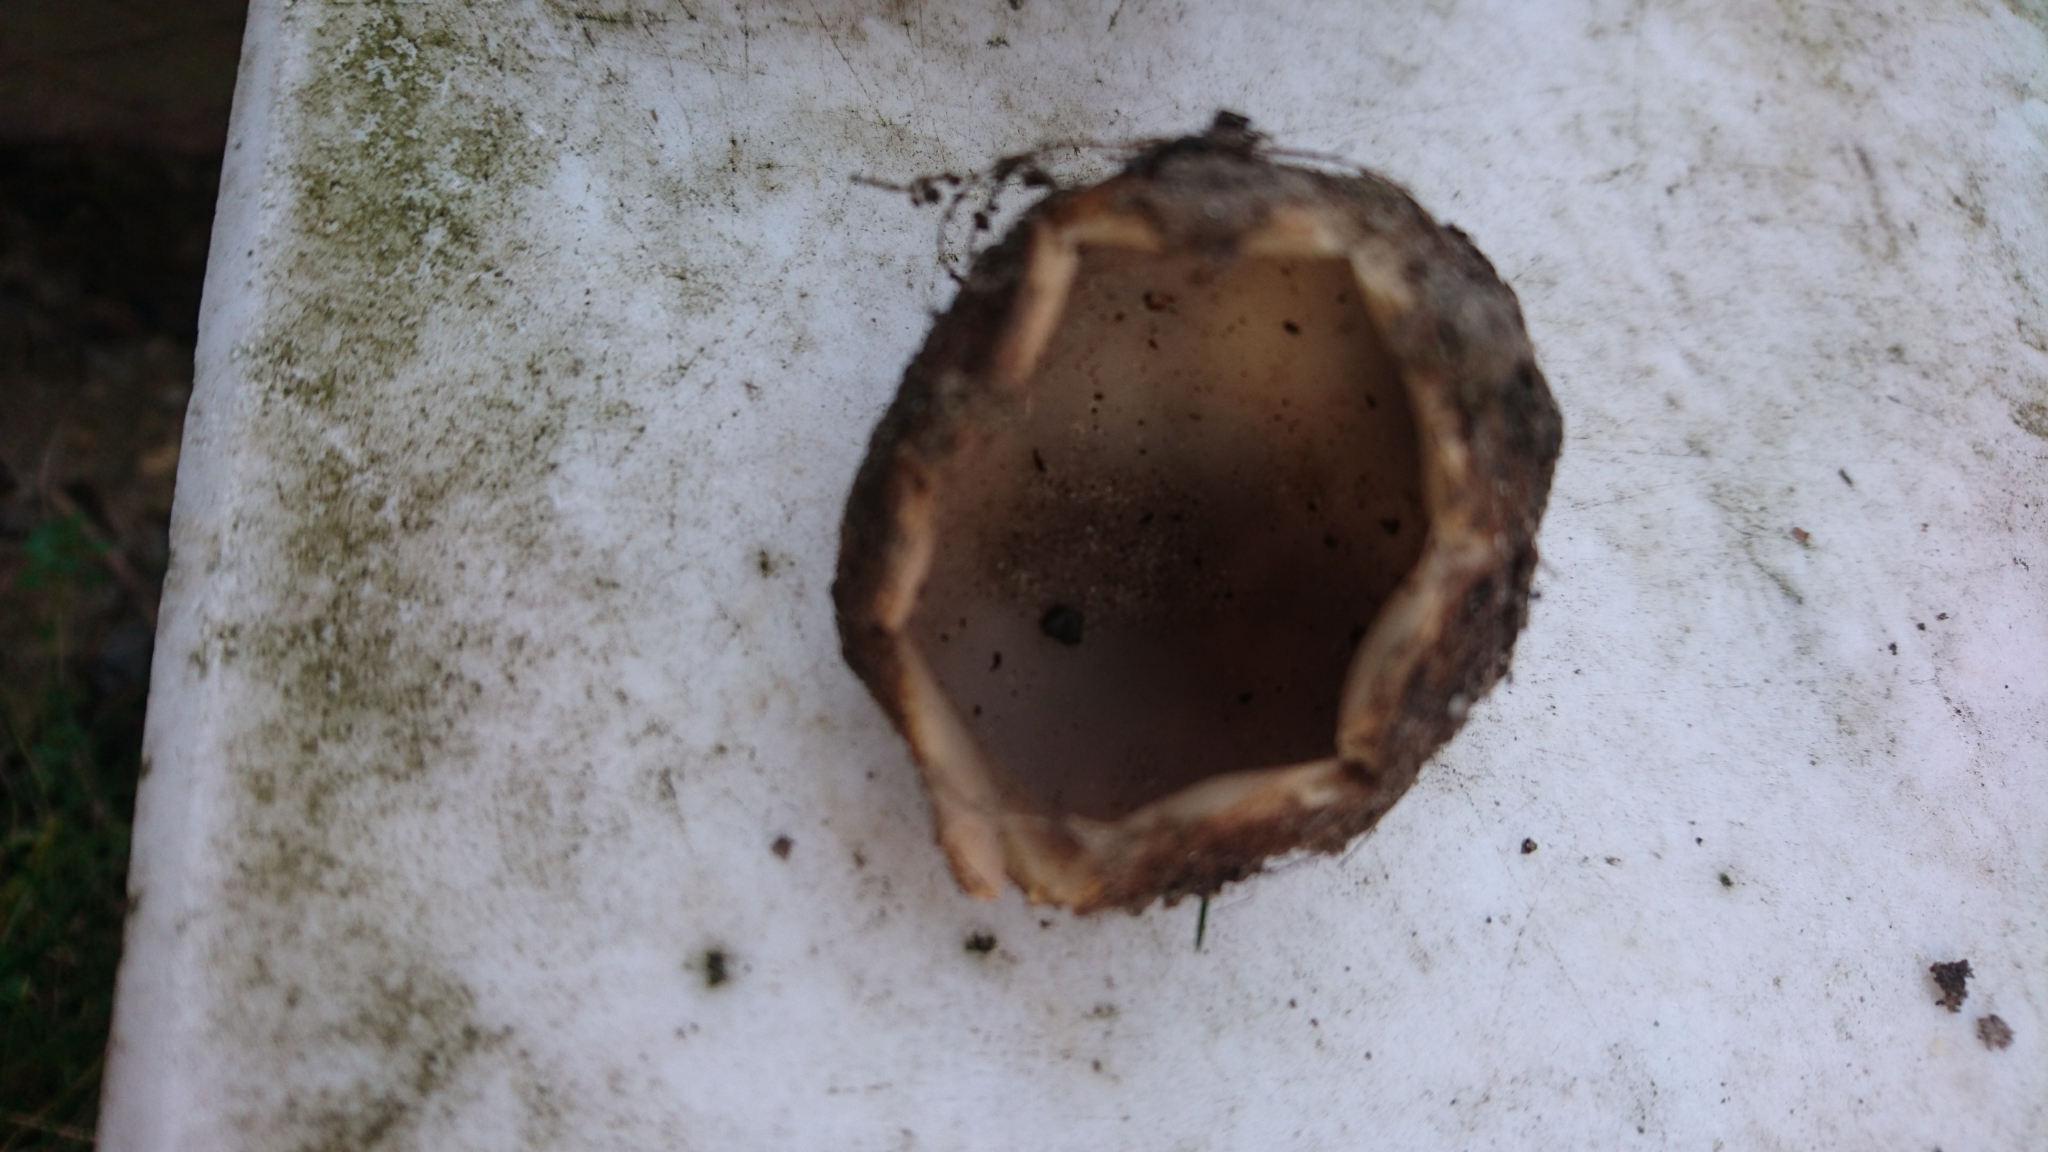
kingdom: Fungi
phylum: Ascomycota
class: Pezizomycetes
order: Pezizales
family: Pyronemataceae
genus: Geopora
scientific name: Geopora sumneriana
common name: Cedar cup
